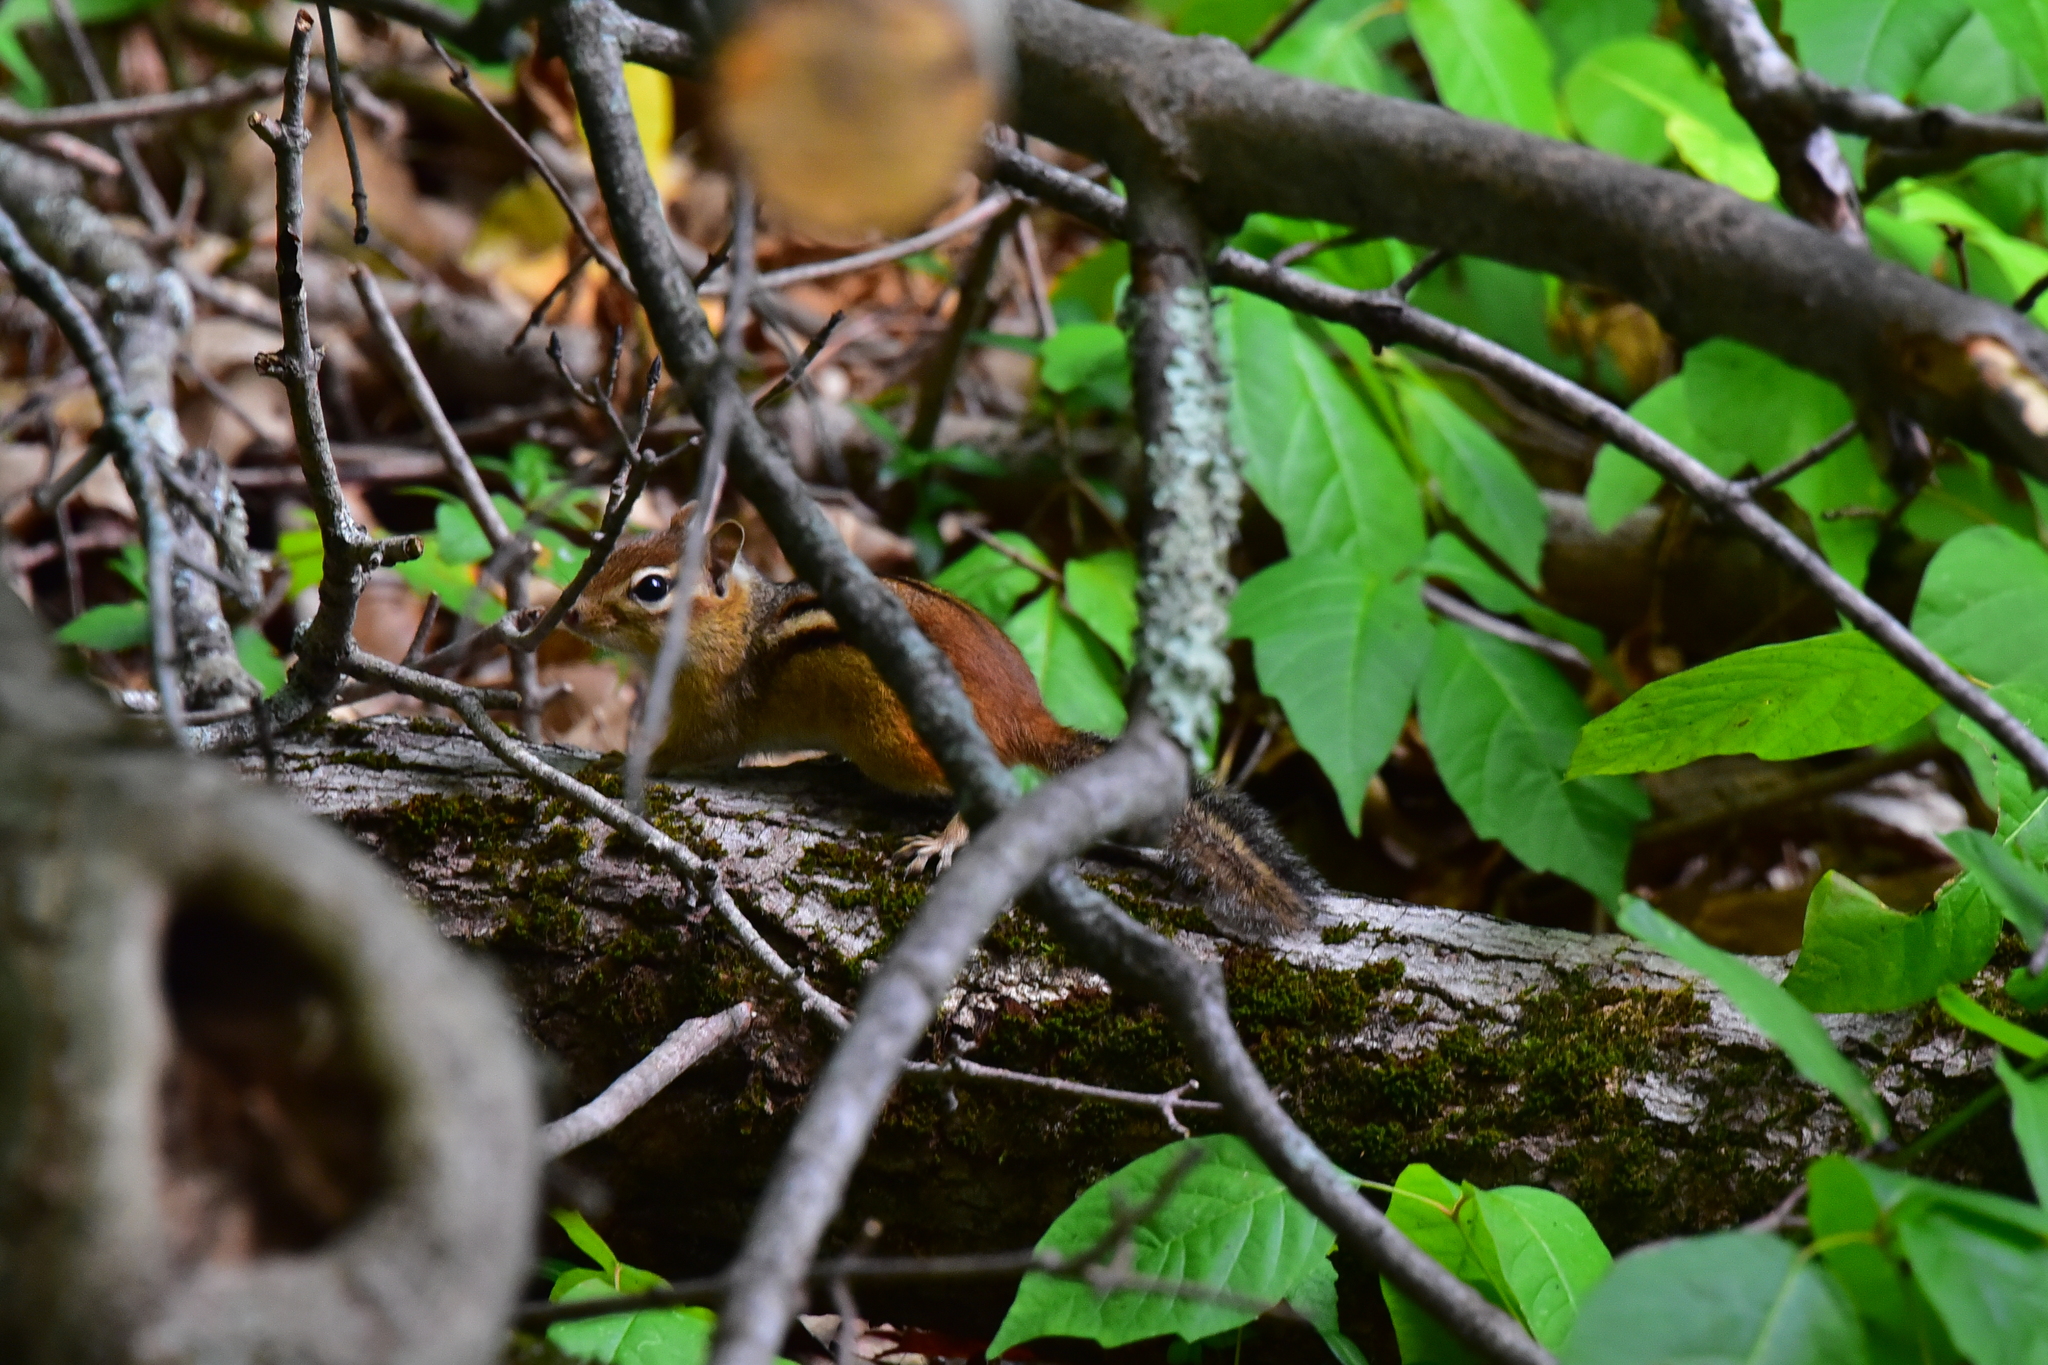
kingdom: Animalia
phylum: Chordata
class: Mammalia
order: Rodentia
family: Sciuridae
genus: Tamias
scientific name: Tamias striatus
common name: Eastern chipmunk
